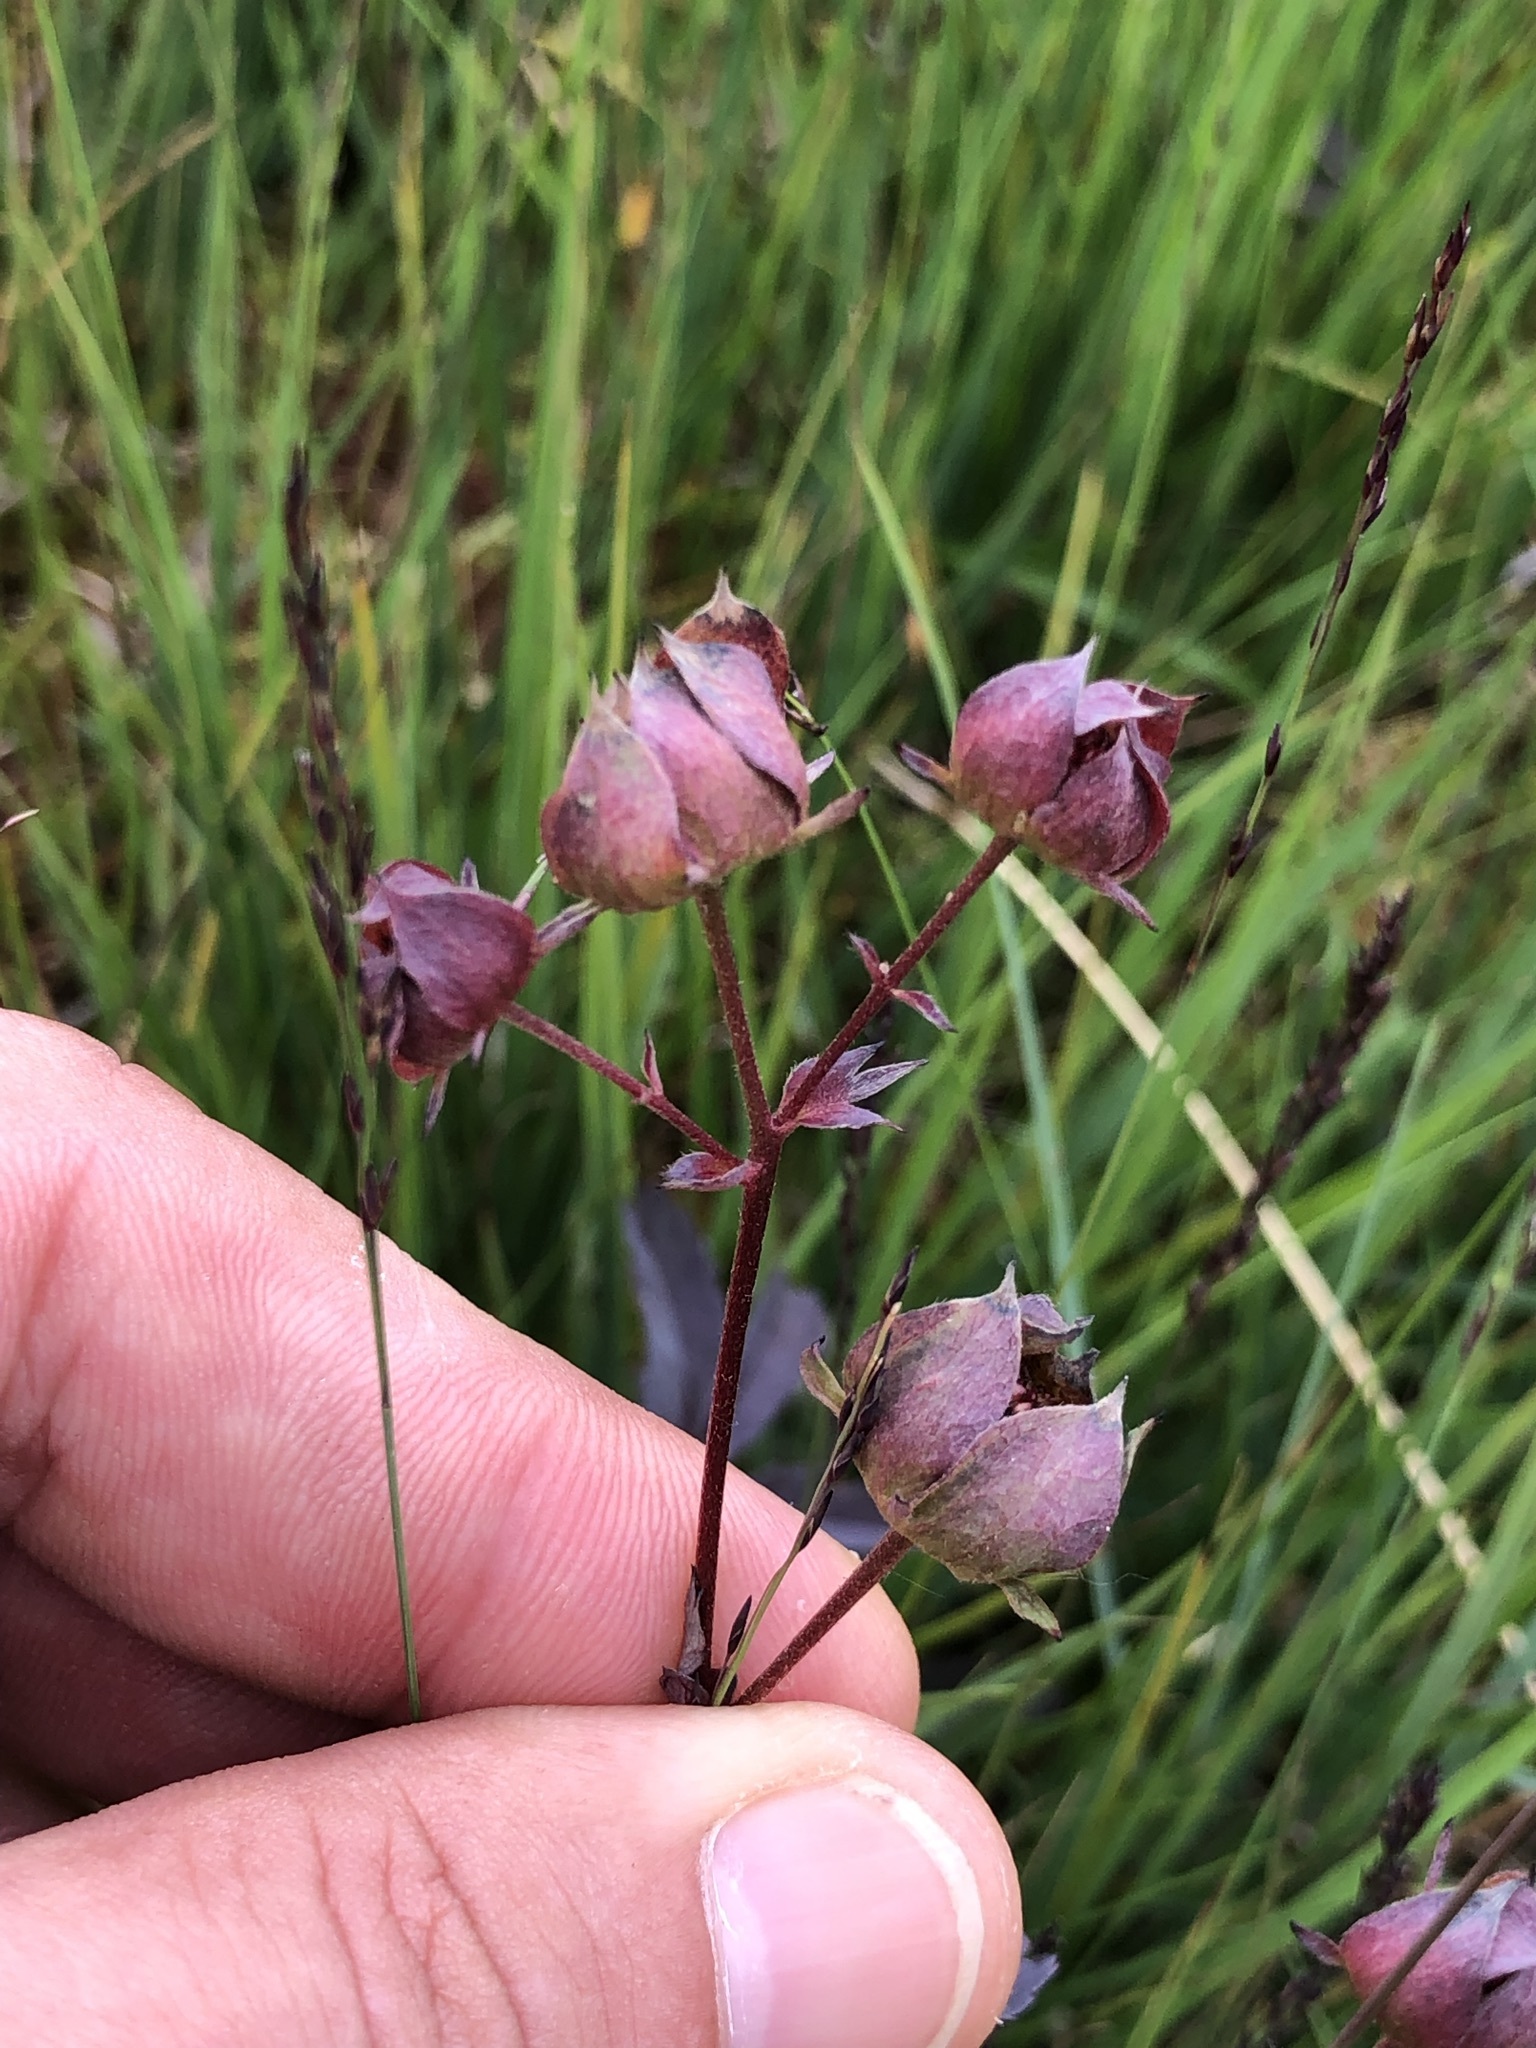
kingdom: Plantae
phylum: Tracheophyta
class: Magnoliopsida
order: Rosales
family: Rosaceae
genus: Comarum
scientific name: Comarum palustre
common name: Marsh cinquefoil
